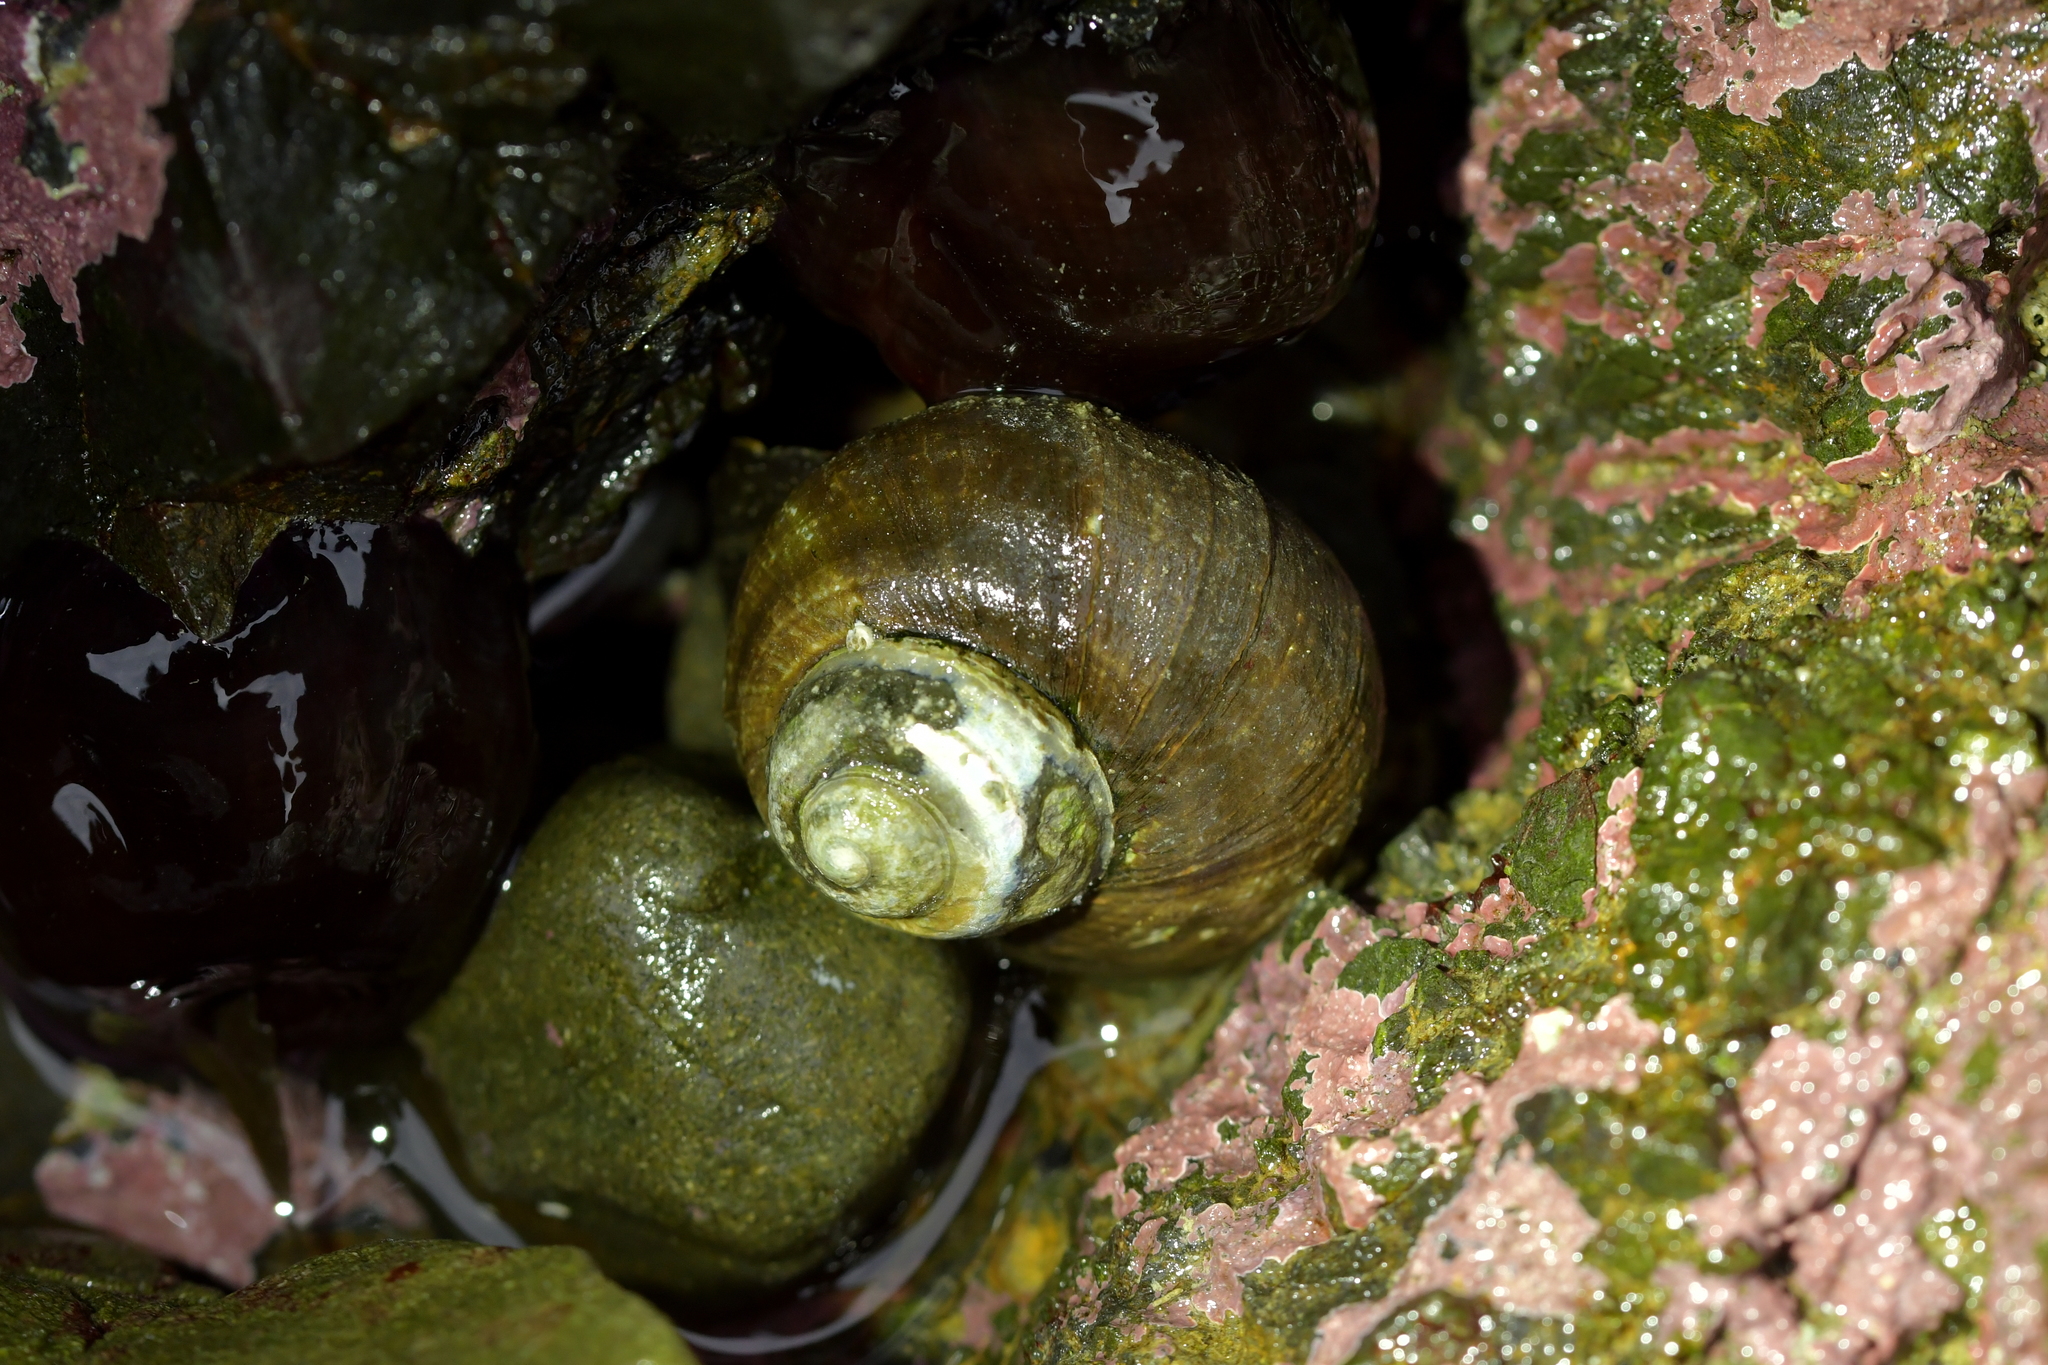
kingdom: Animalia
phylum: Mollusca
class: Gastropoda
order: Trochida
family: Turbinidae
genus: Lunella
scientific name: Lunella smaragda
